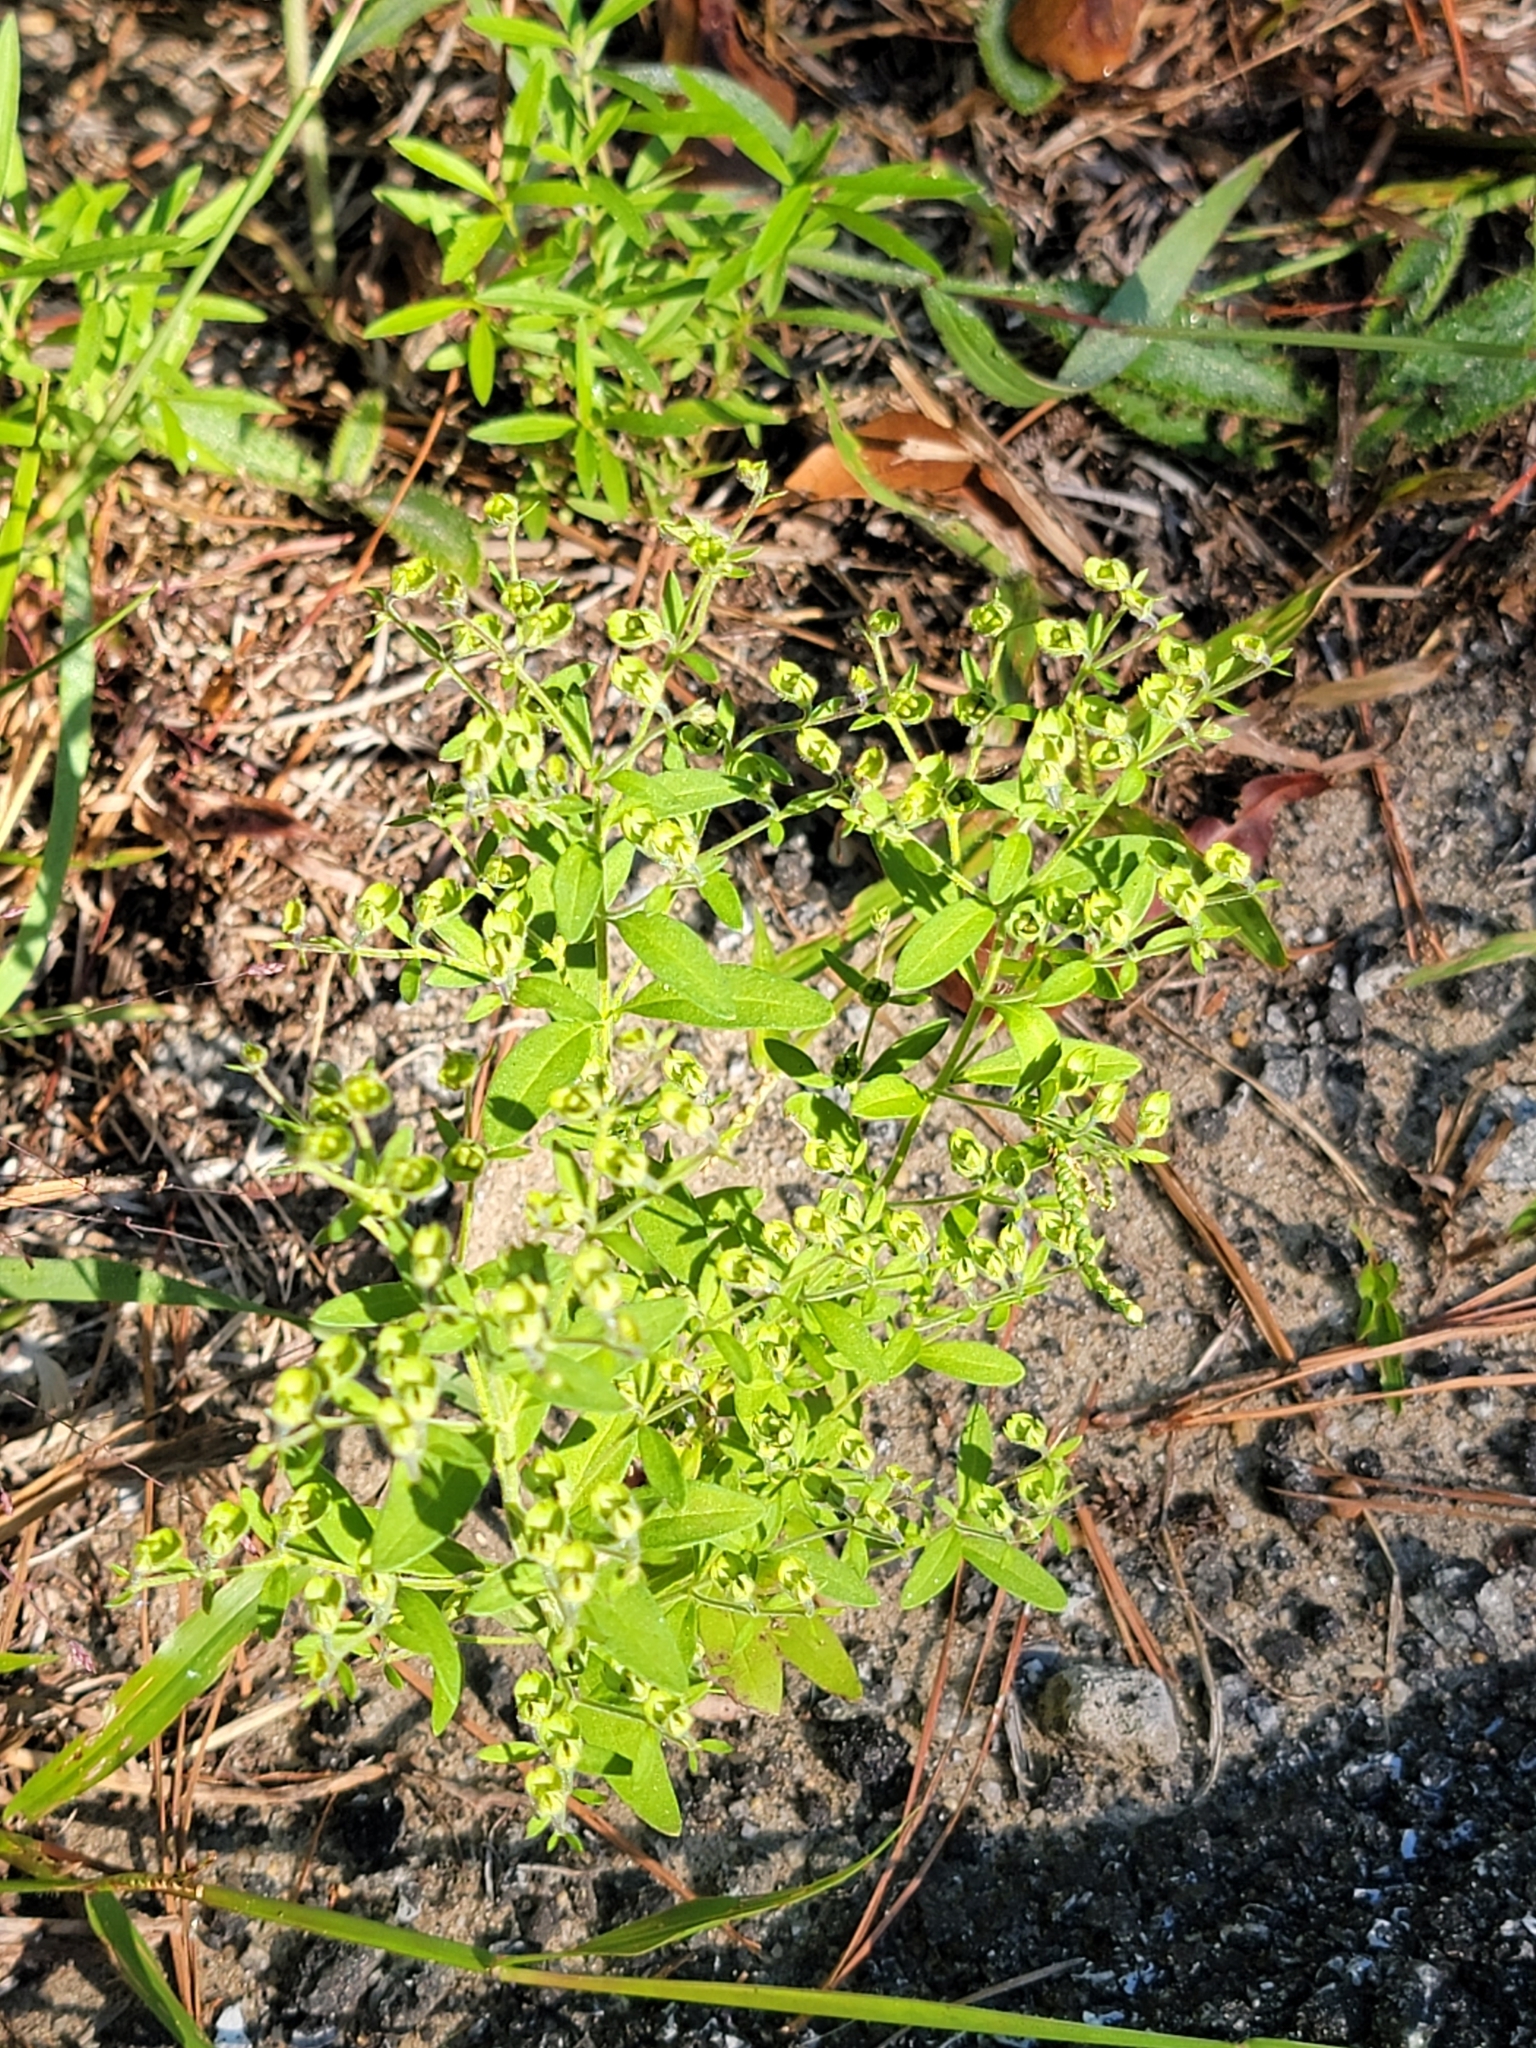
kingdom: Plantae
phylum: Tracheophyta
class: Magnoliopsida
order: Lamiales
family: Lamiaceae
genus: Trichostema
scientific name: Trichostema dichotomum
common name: Bastard pennyroyal
